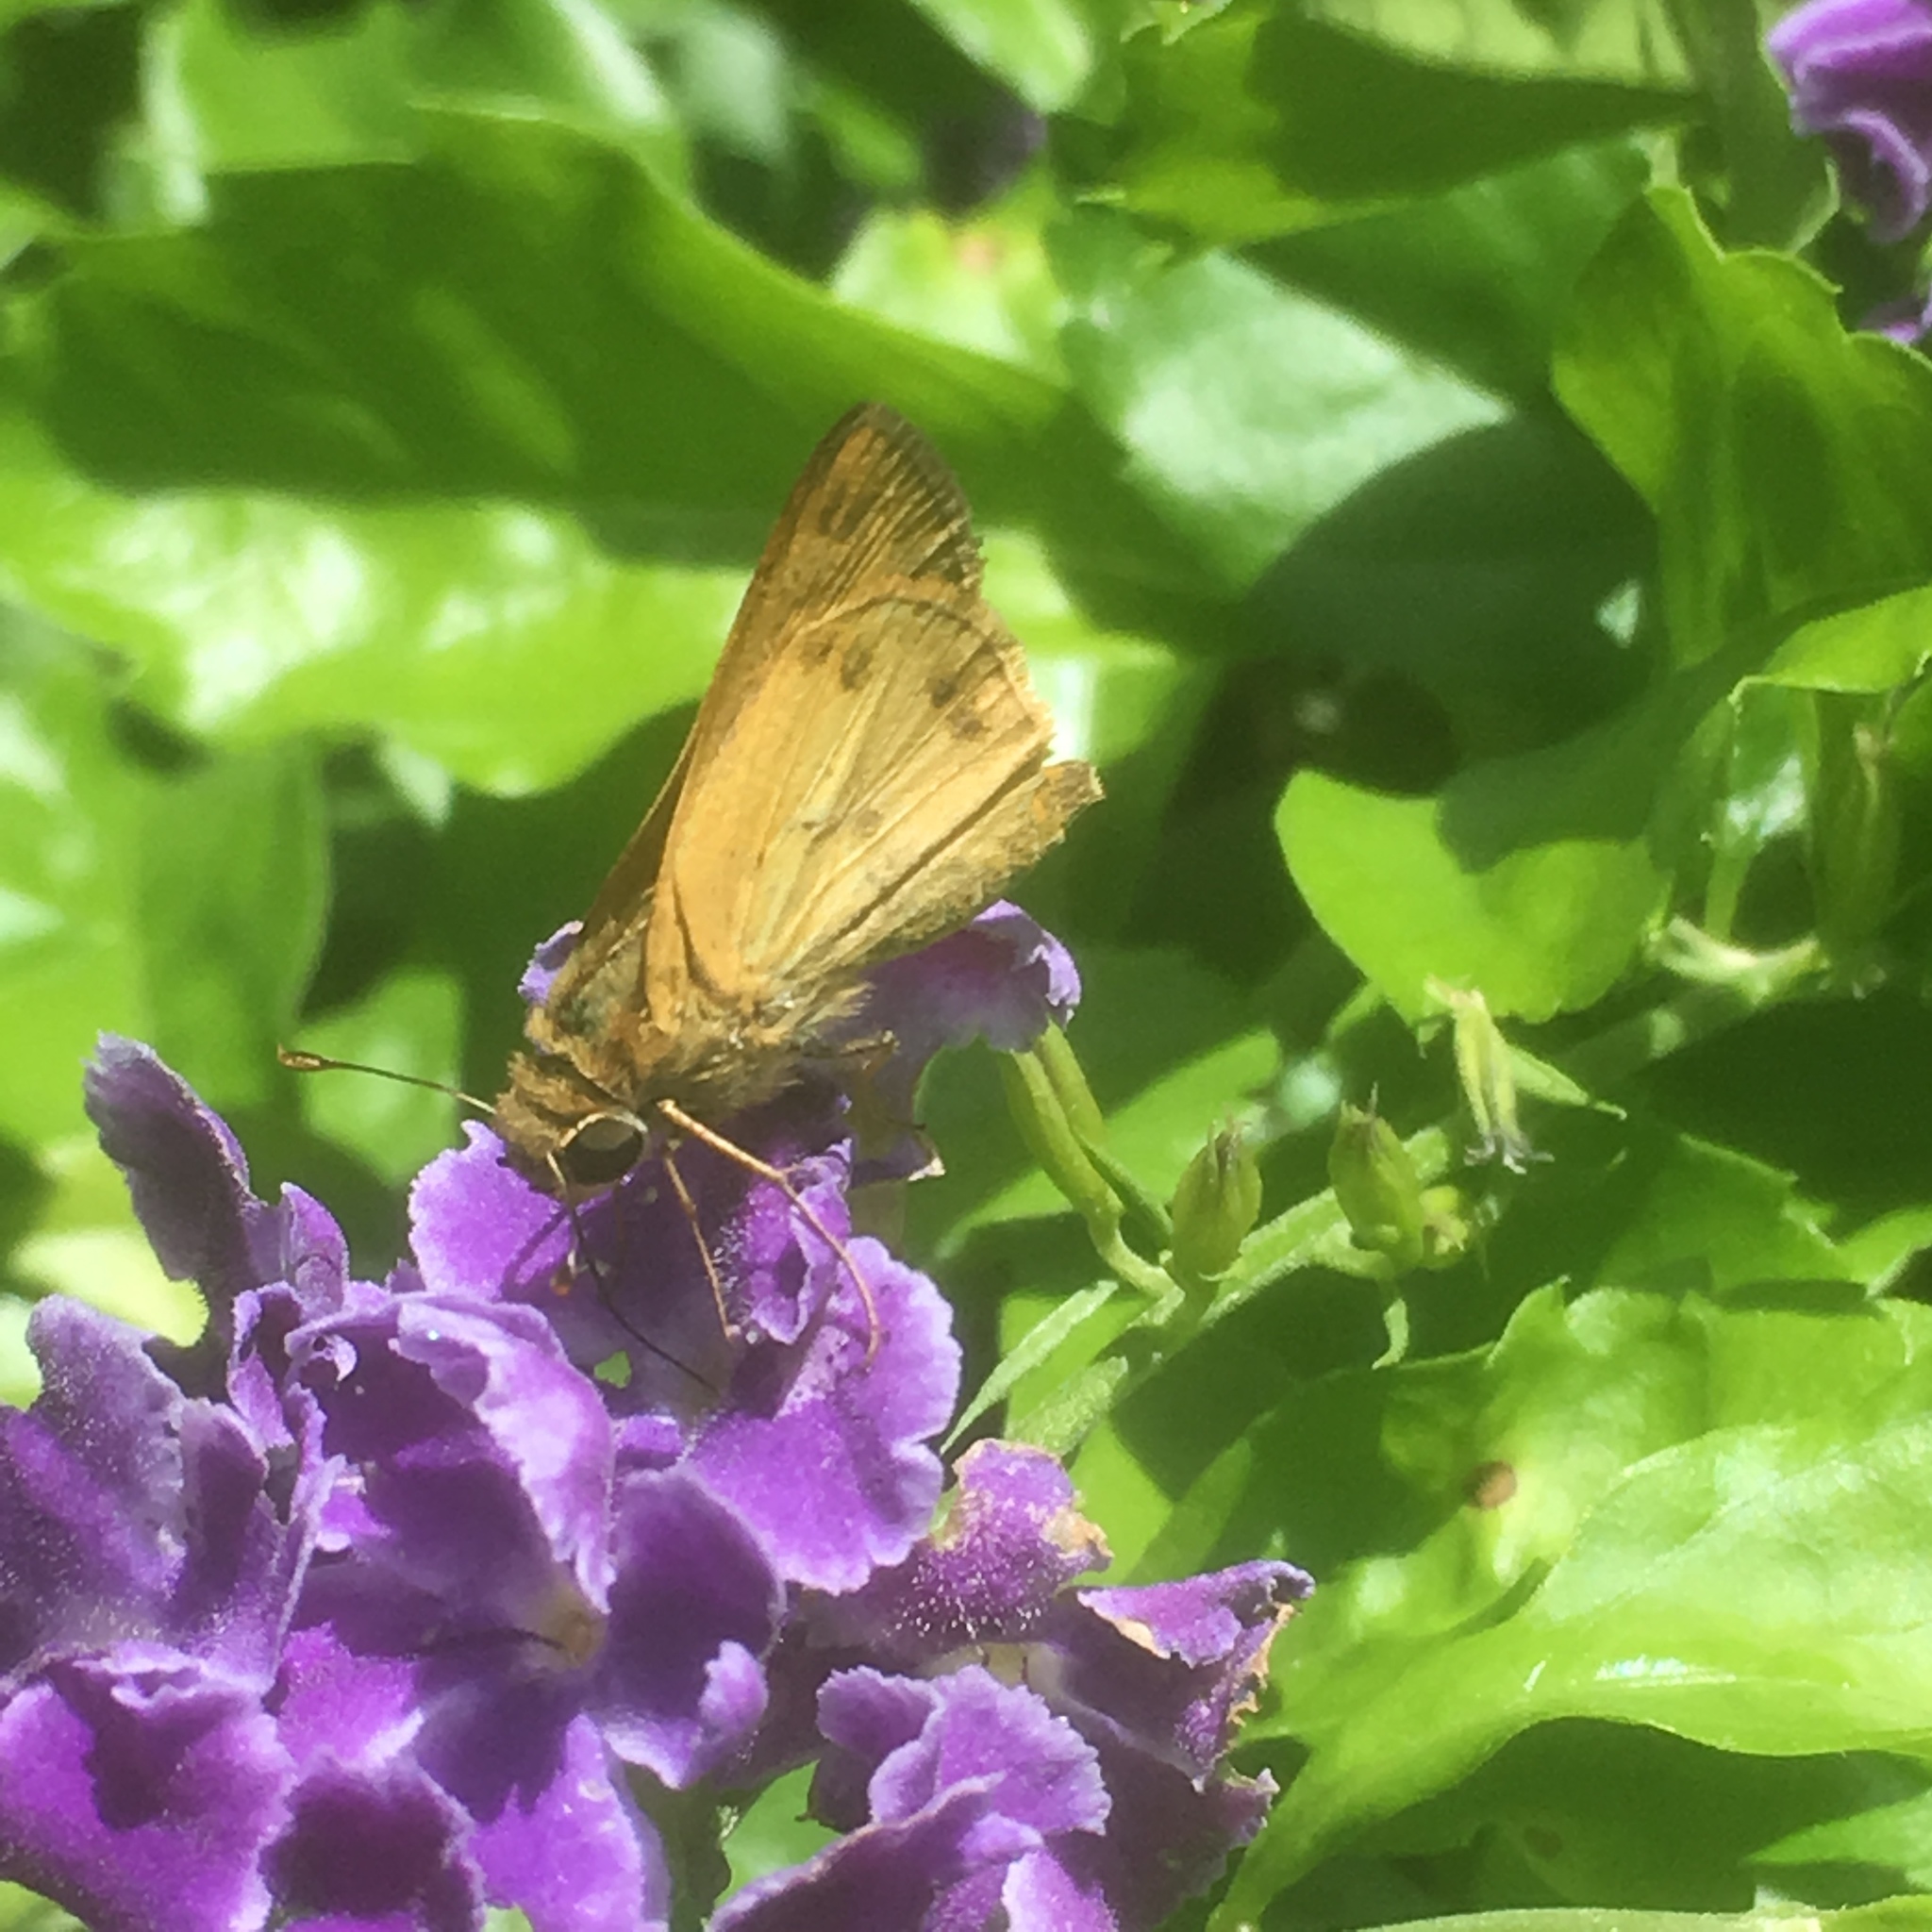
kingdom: Animalia
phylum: Arthropoda
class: Insecta
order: Lepidoptera
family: Hesperiidae
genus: Polites
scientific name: Polites vibex
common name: Whirlabout
